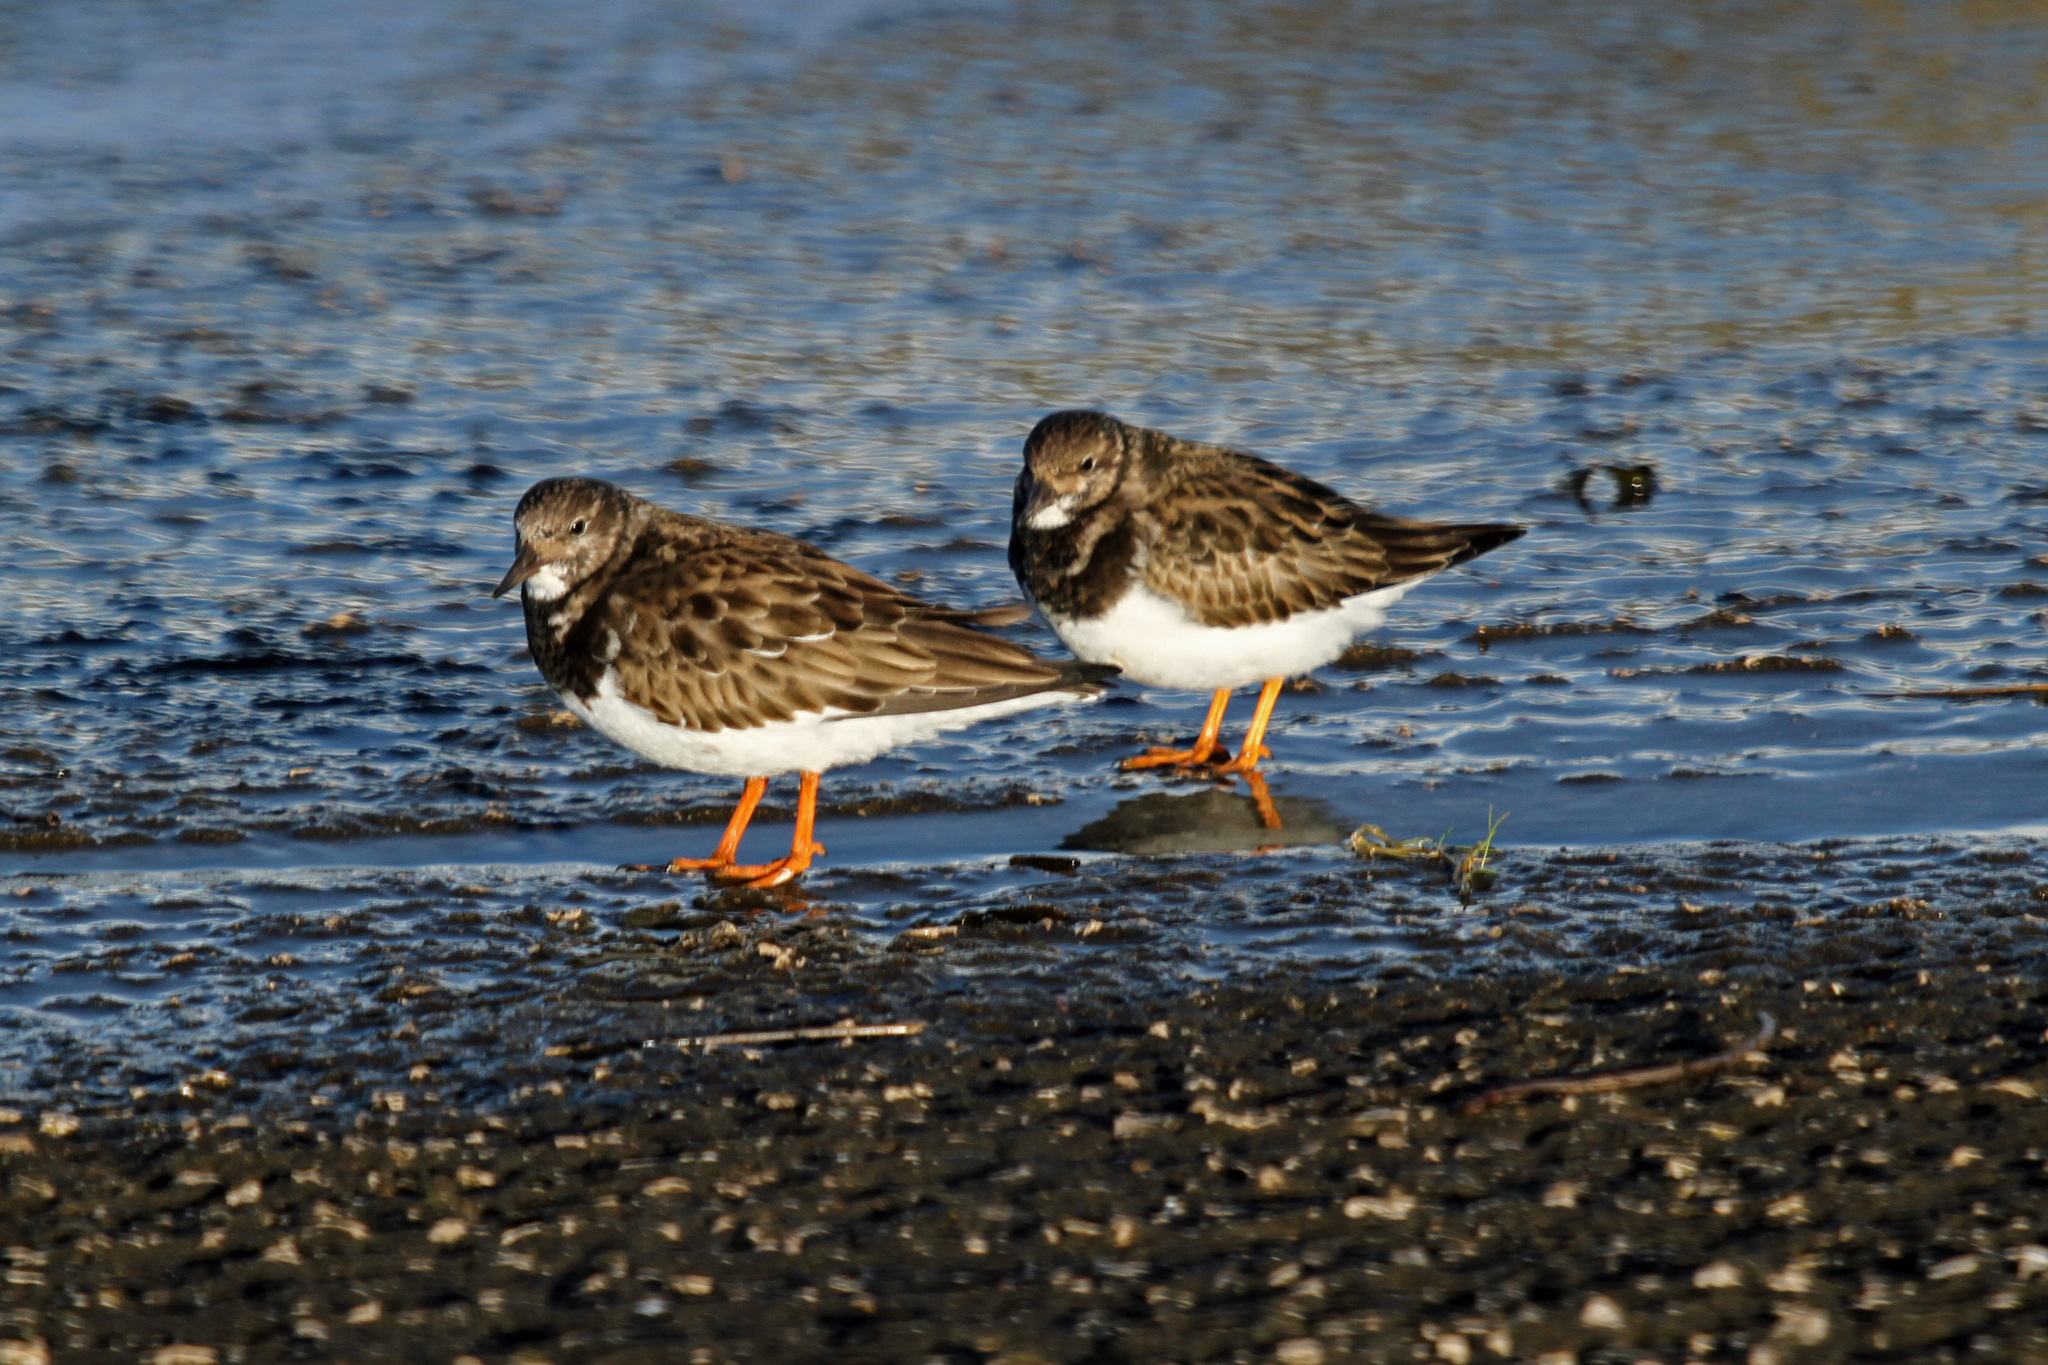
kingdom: Animalia
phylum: Chordata
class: Aves
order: Charadriiformes
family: Scolopacidae
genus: Arenaria
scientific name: Arenaria interpres
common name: Ruddy turnstone
